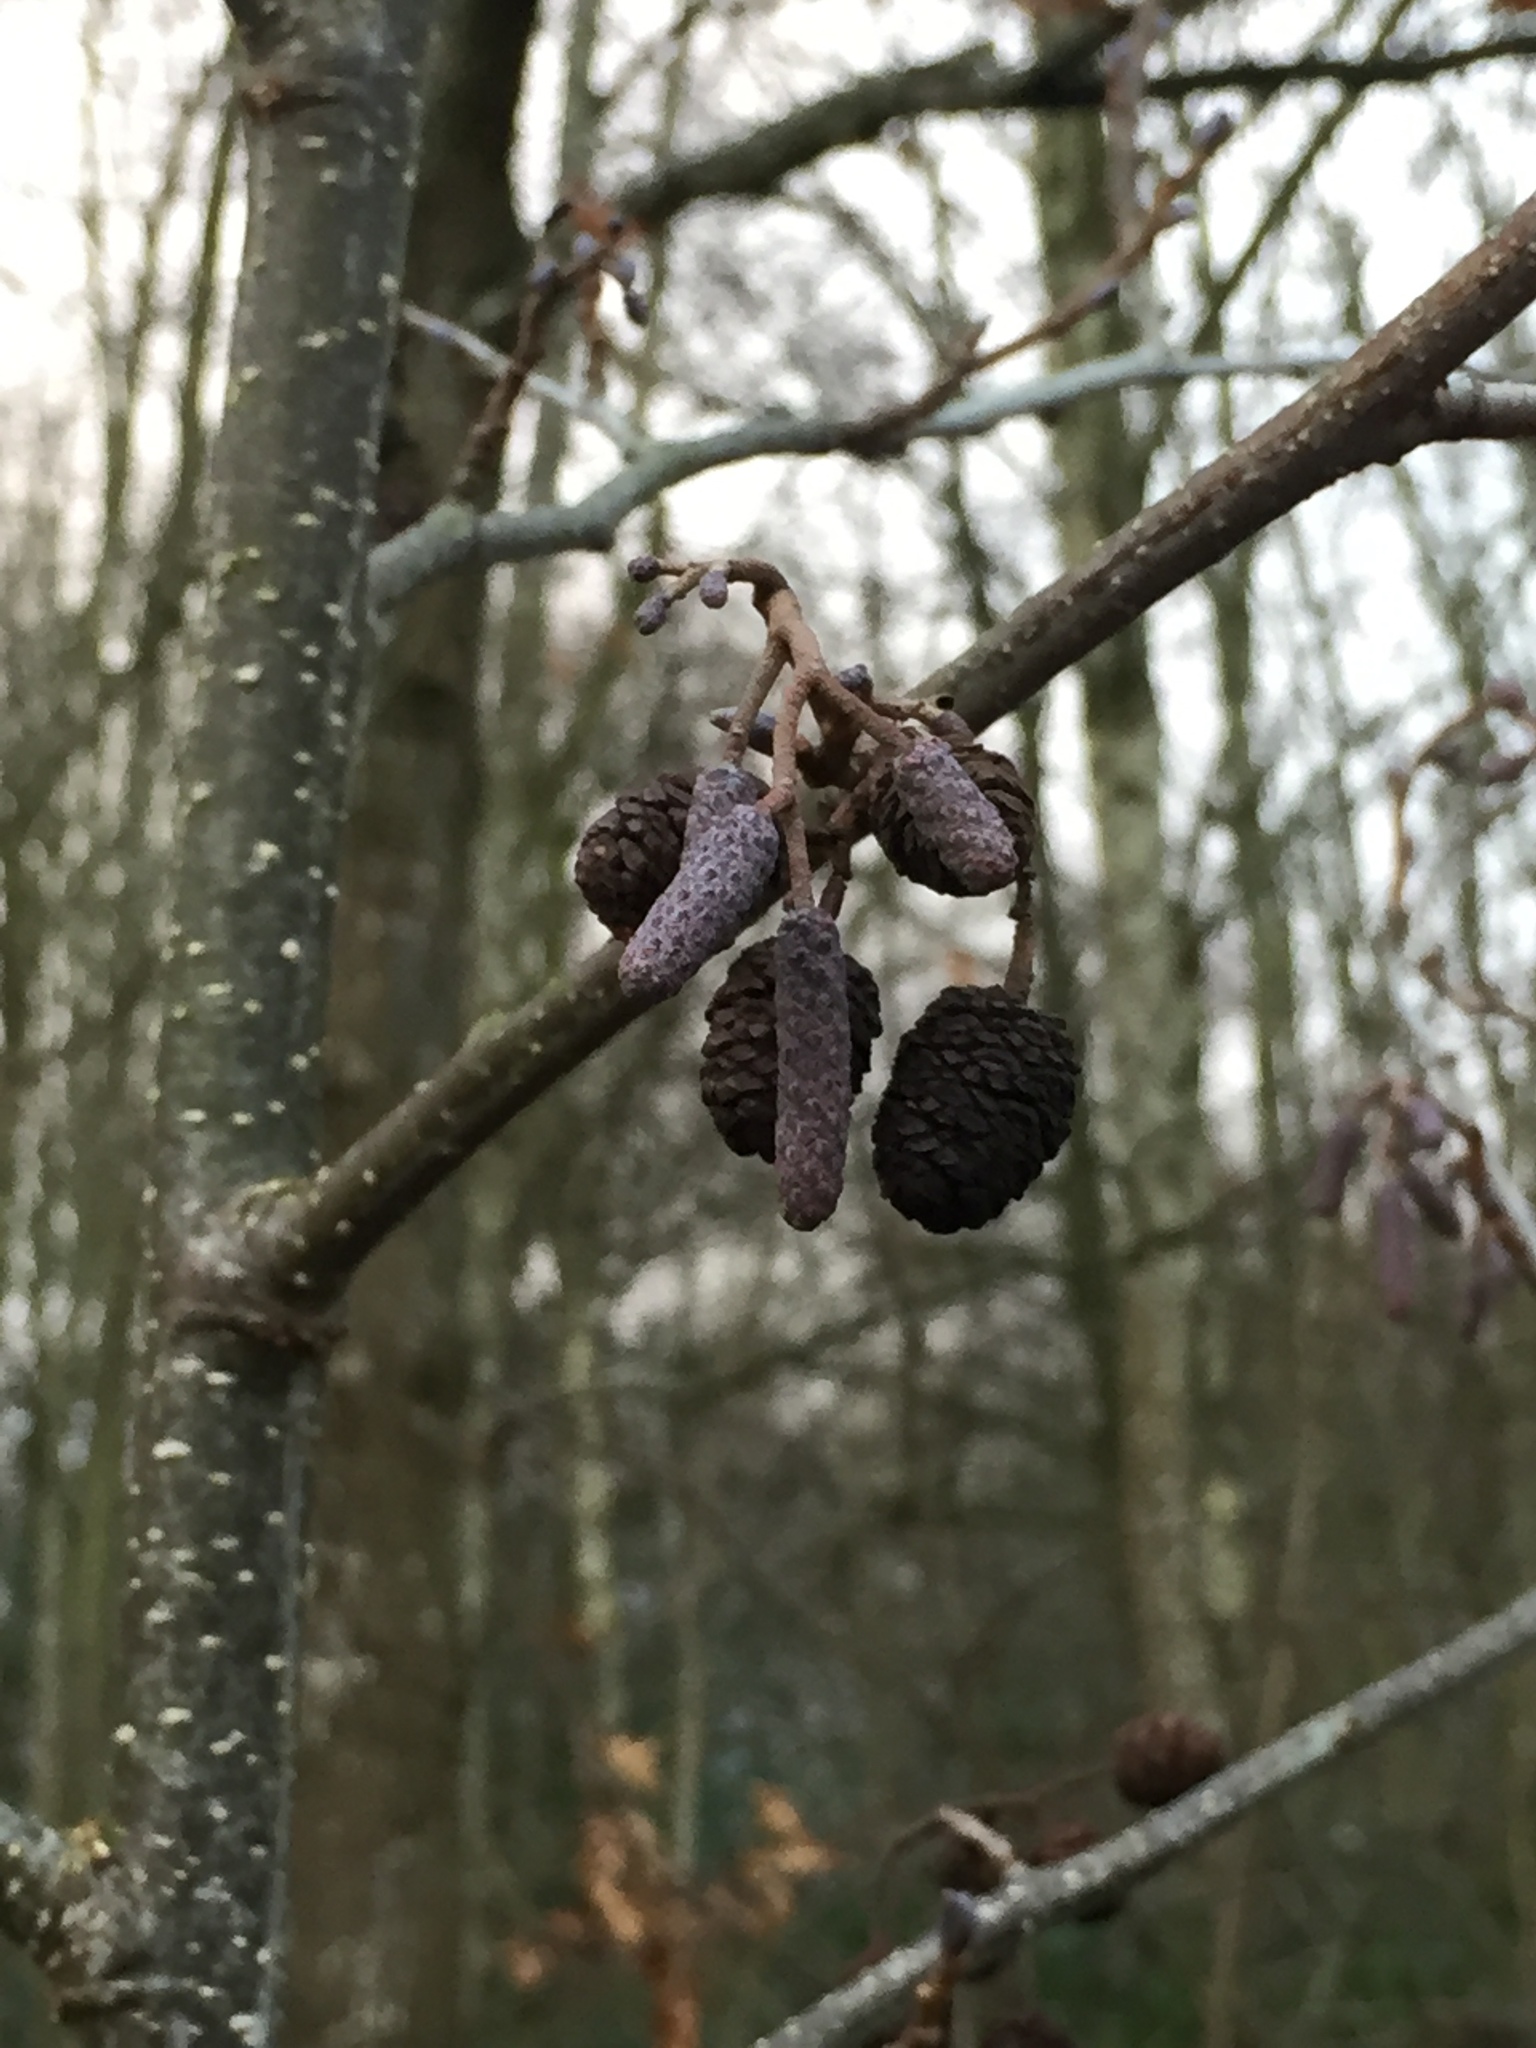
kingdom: Plantae
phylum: Tracheophyta
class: Magnoliopsida
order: Fagales
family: Betulaceae
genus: Alnus
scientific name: Alnus glutinosa
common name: Black alder
